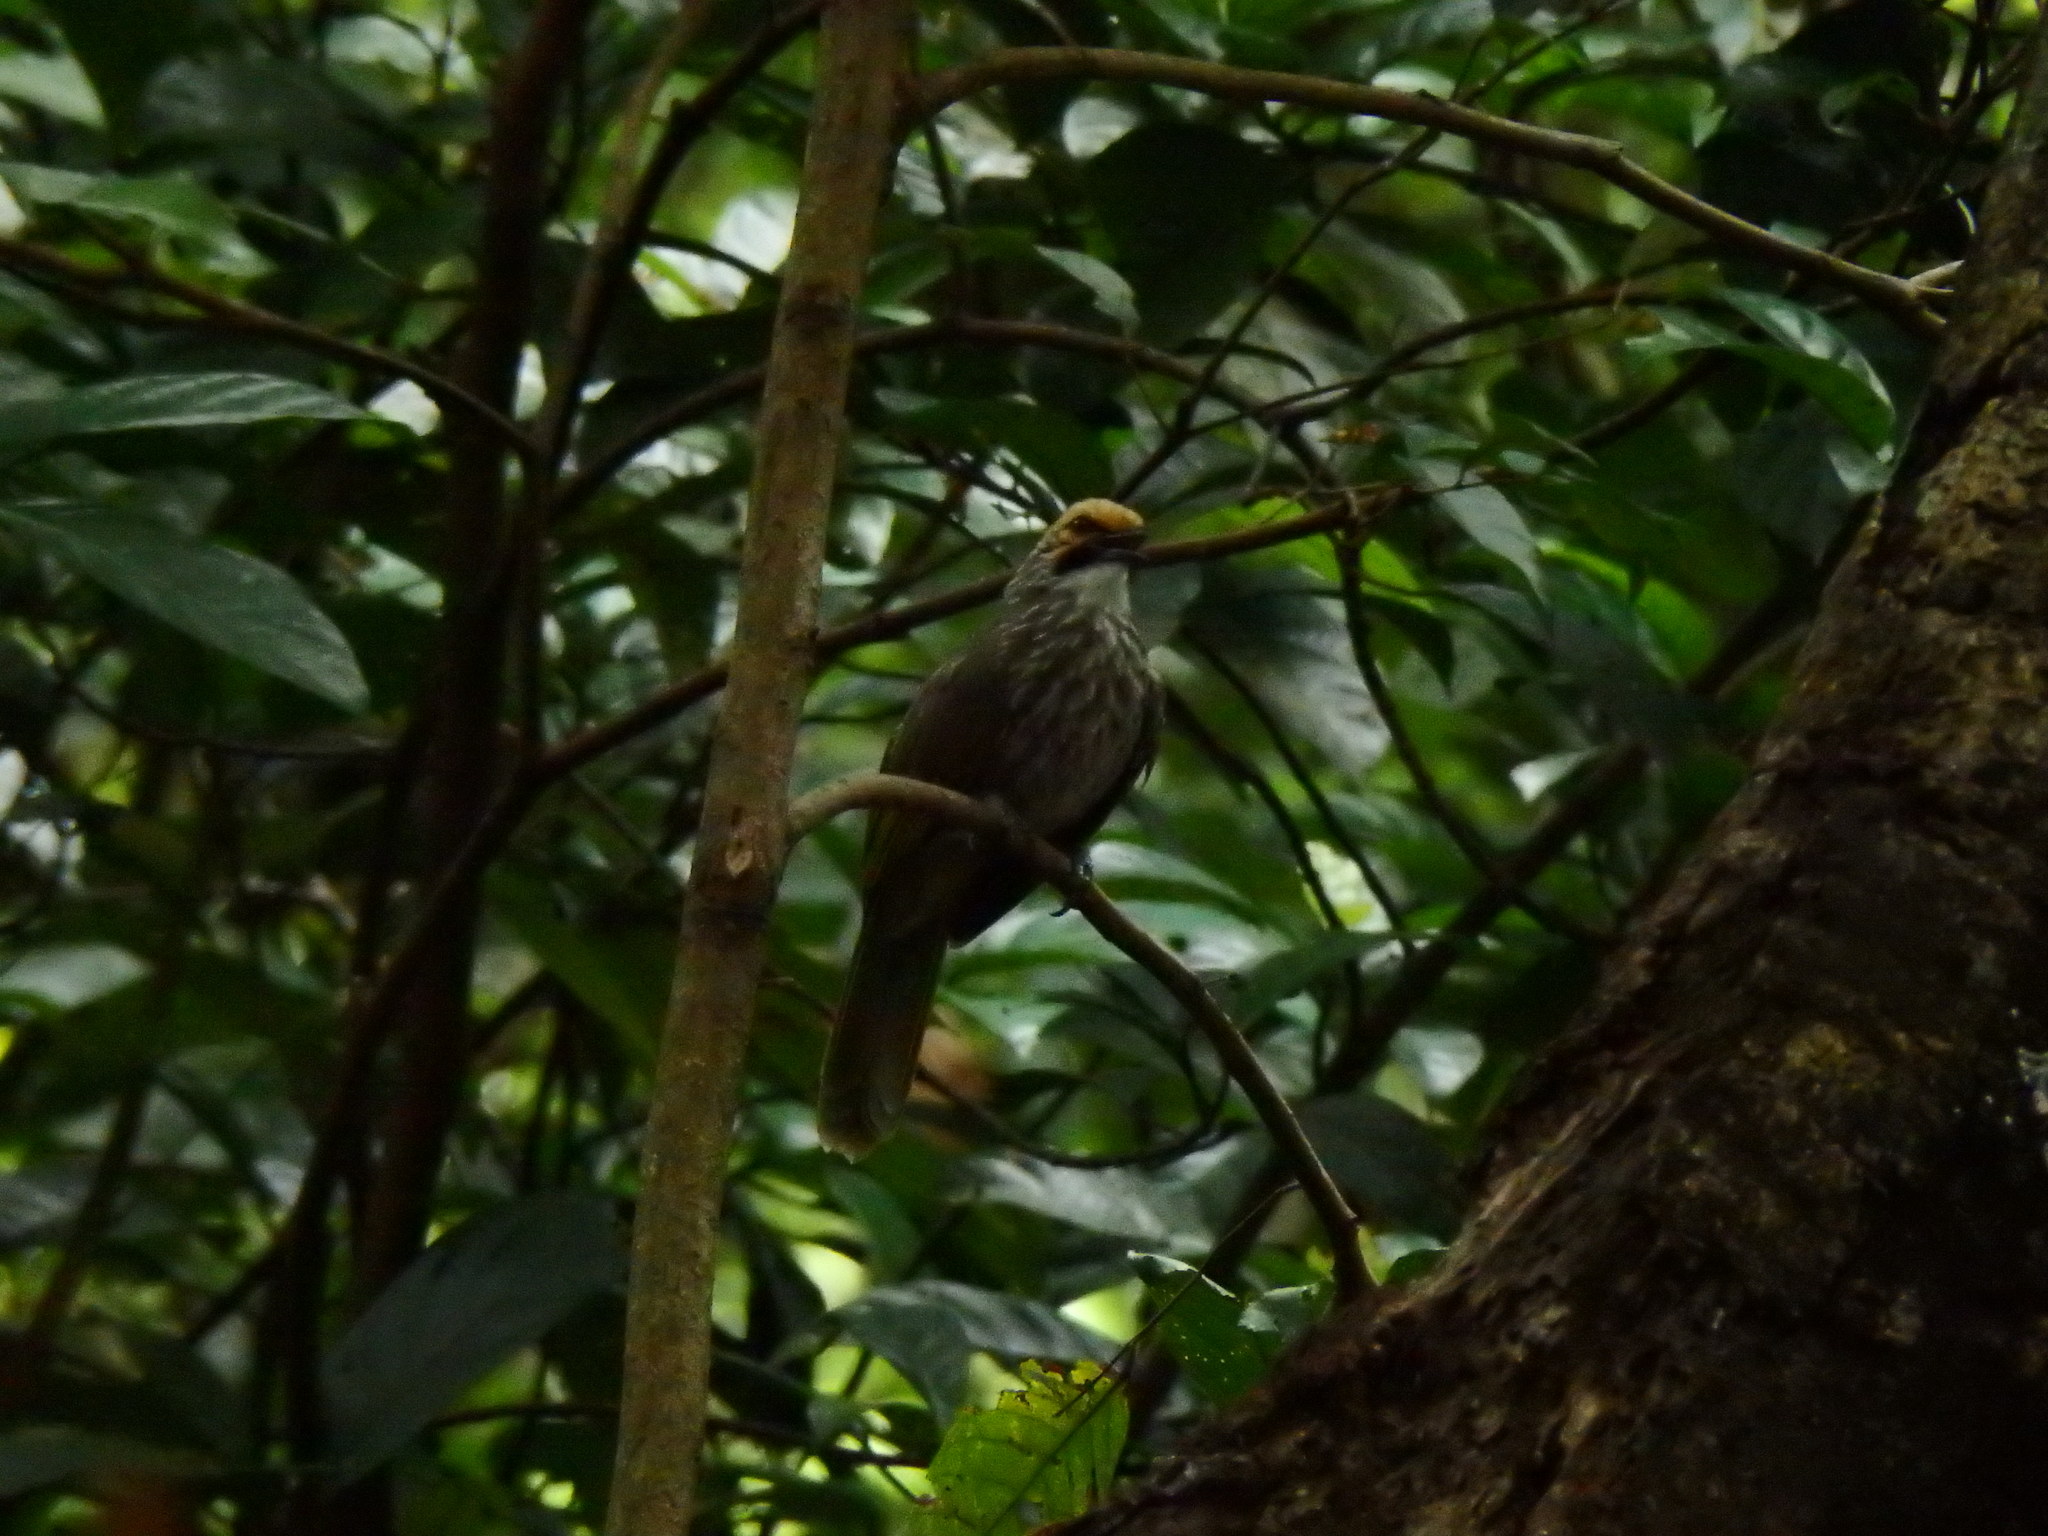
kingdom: Animalia
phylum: Chordata
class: Aves
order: Passeriformes
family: Pycnonotidae
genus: Pycnonotus
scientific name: Pycnonotus zeylanicus
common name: Straw-headed bulbul
